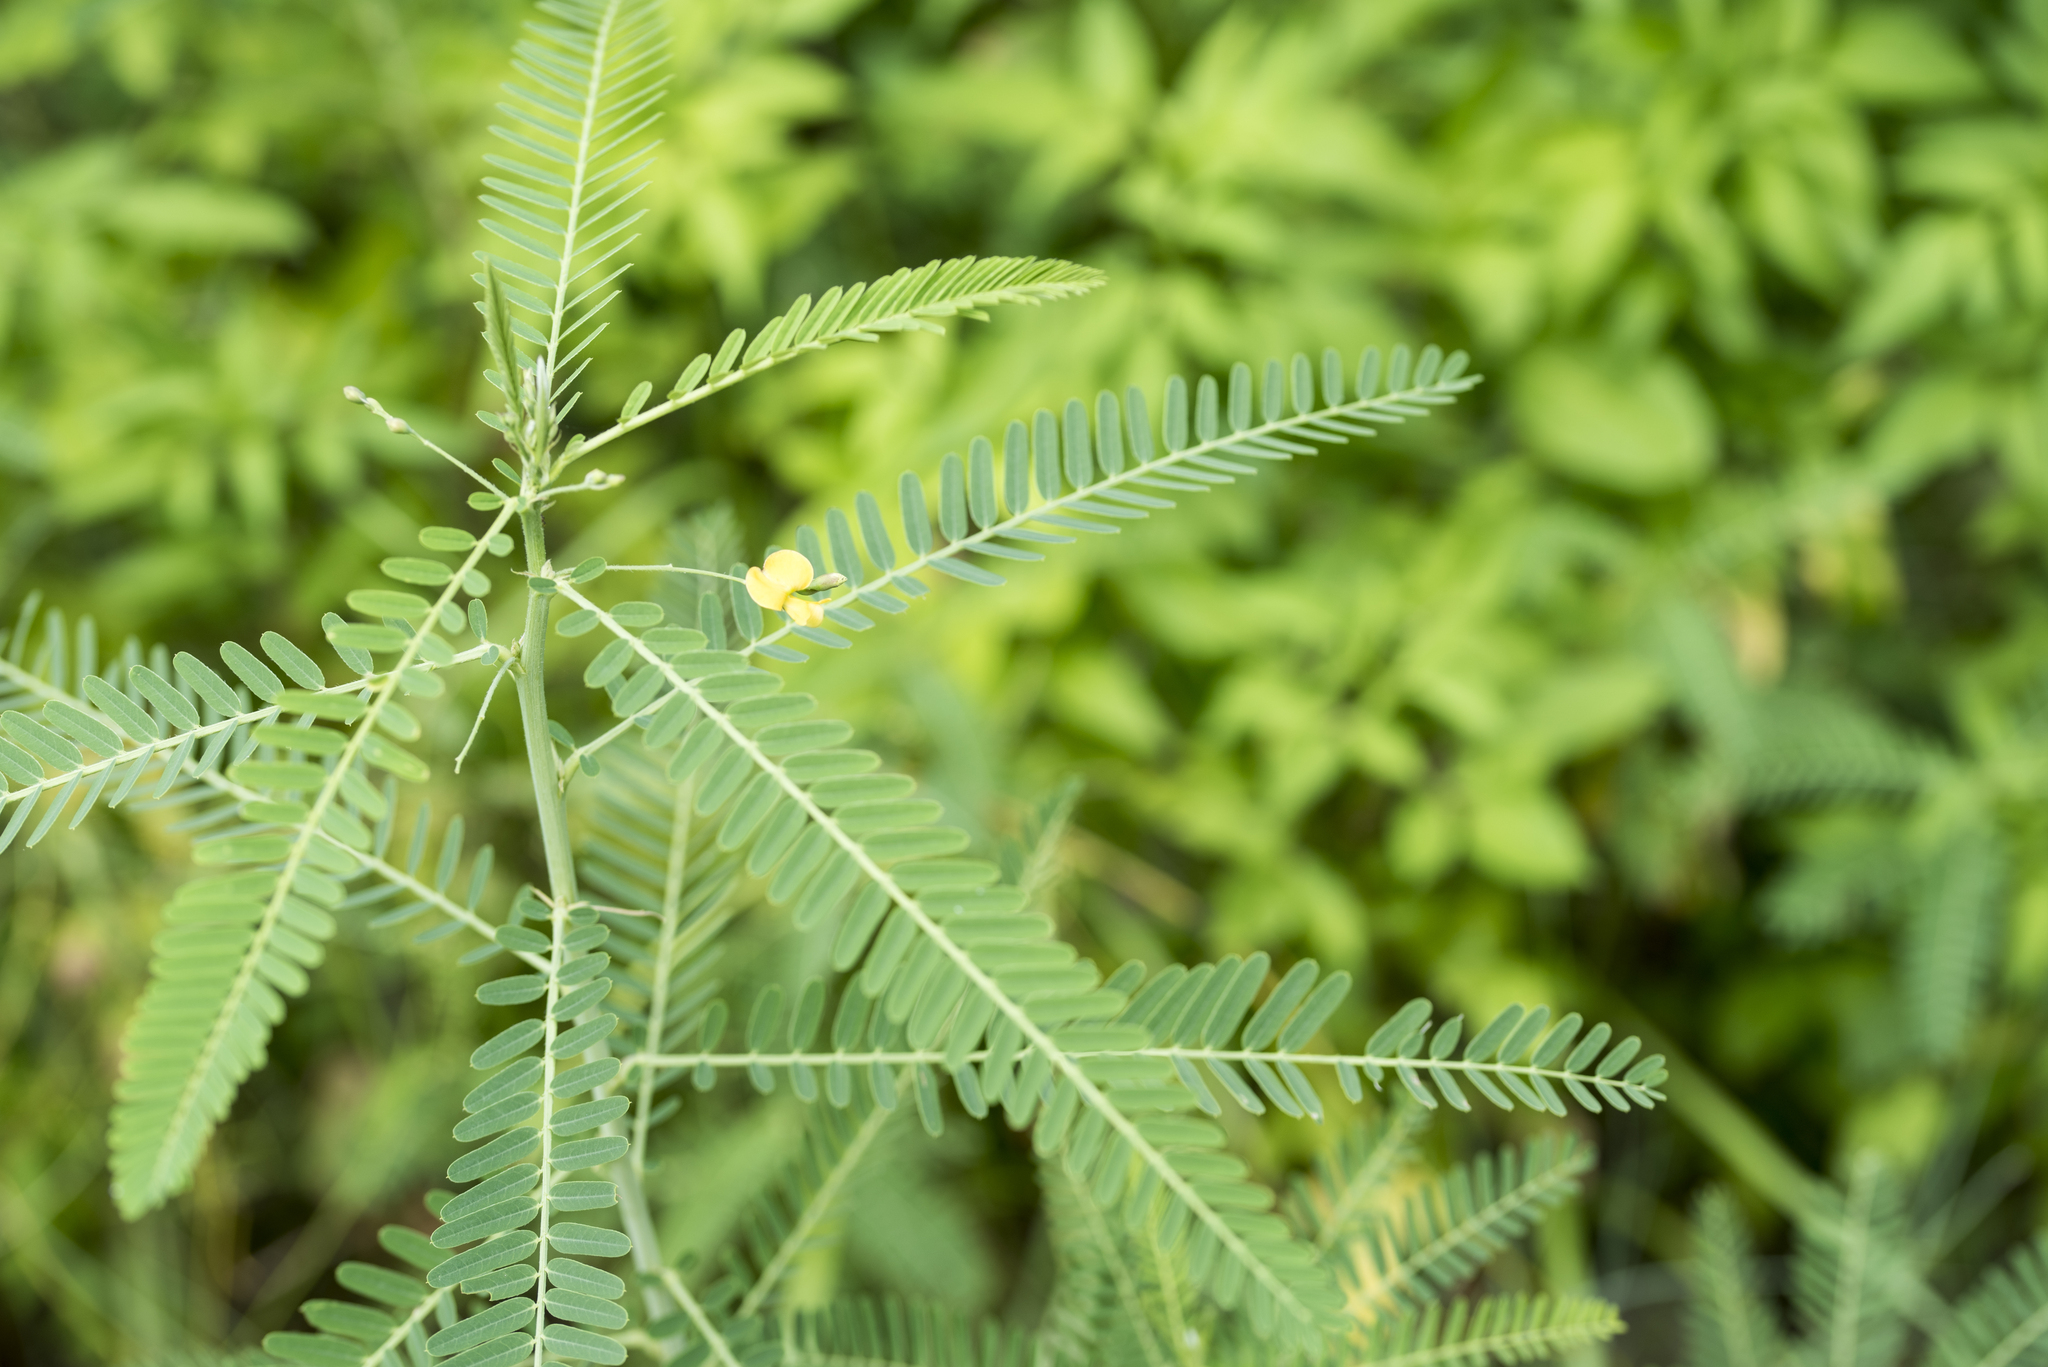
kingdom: Plantae
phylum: Tracheophyta
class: Magnoliopsida
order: Fabales
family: Fabaceae
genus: Sesbania
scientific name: Sesbania cannabina
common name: Canicha
